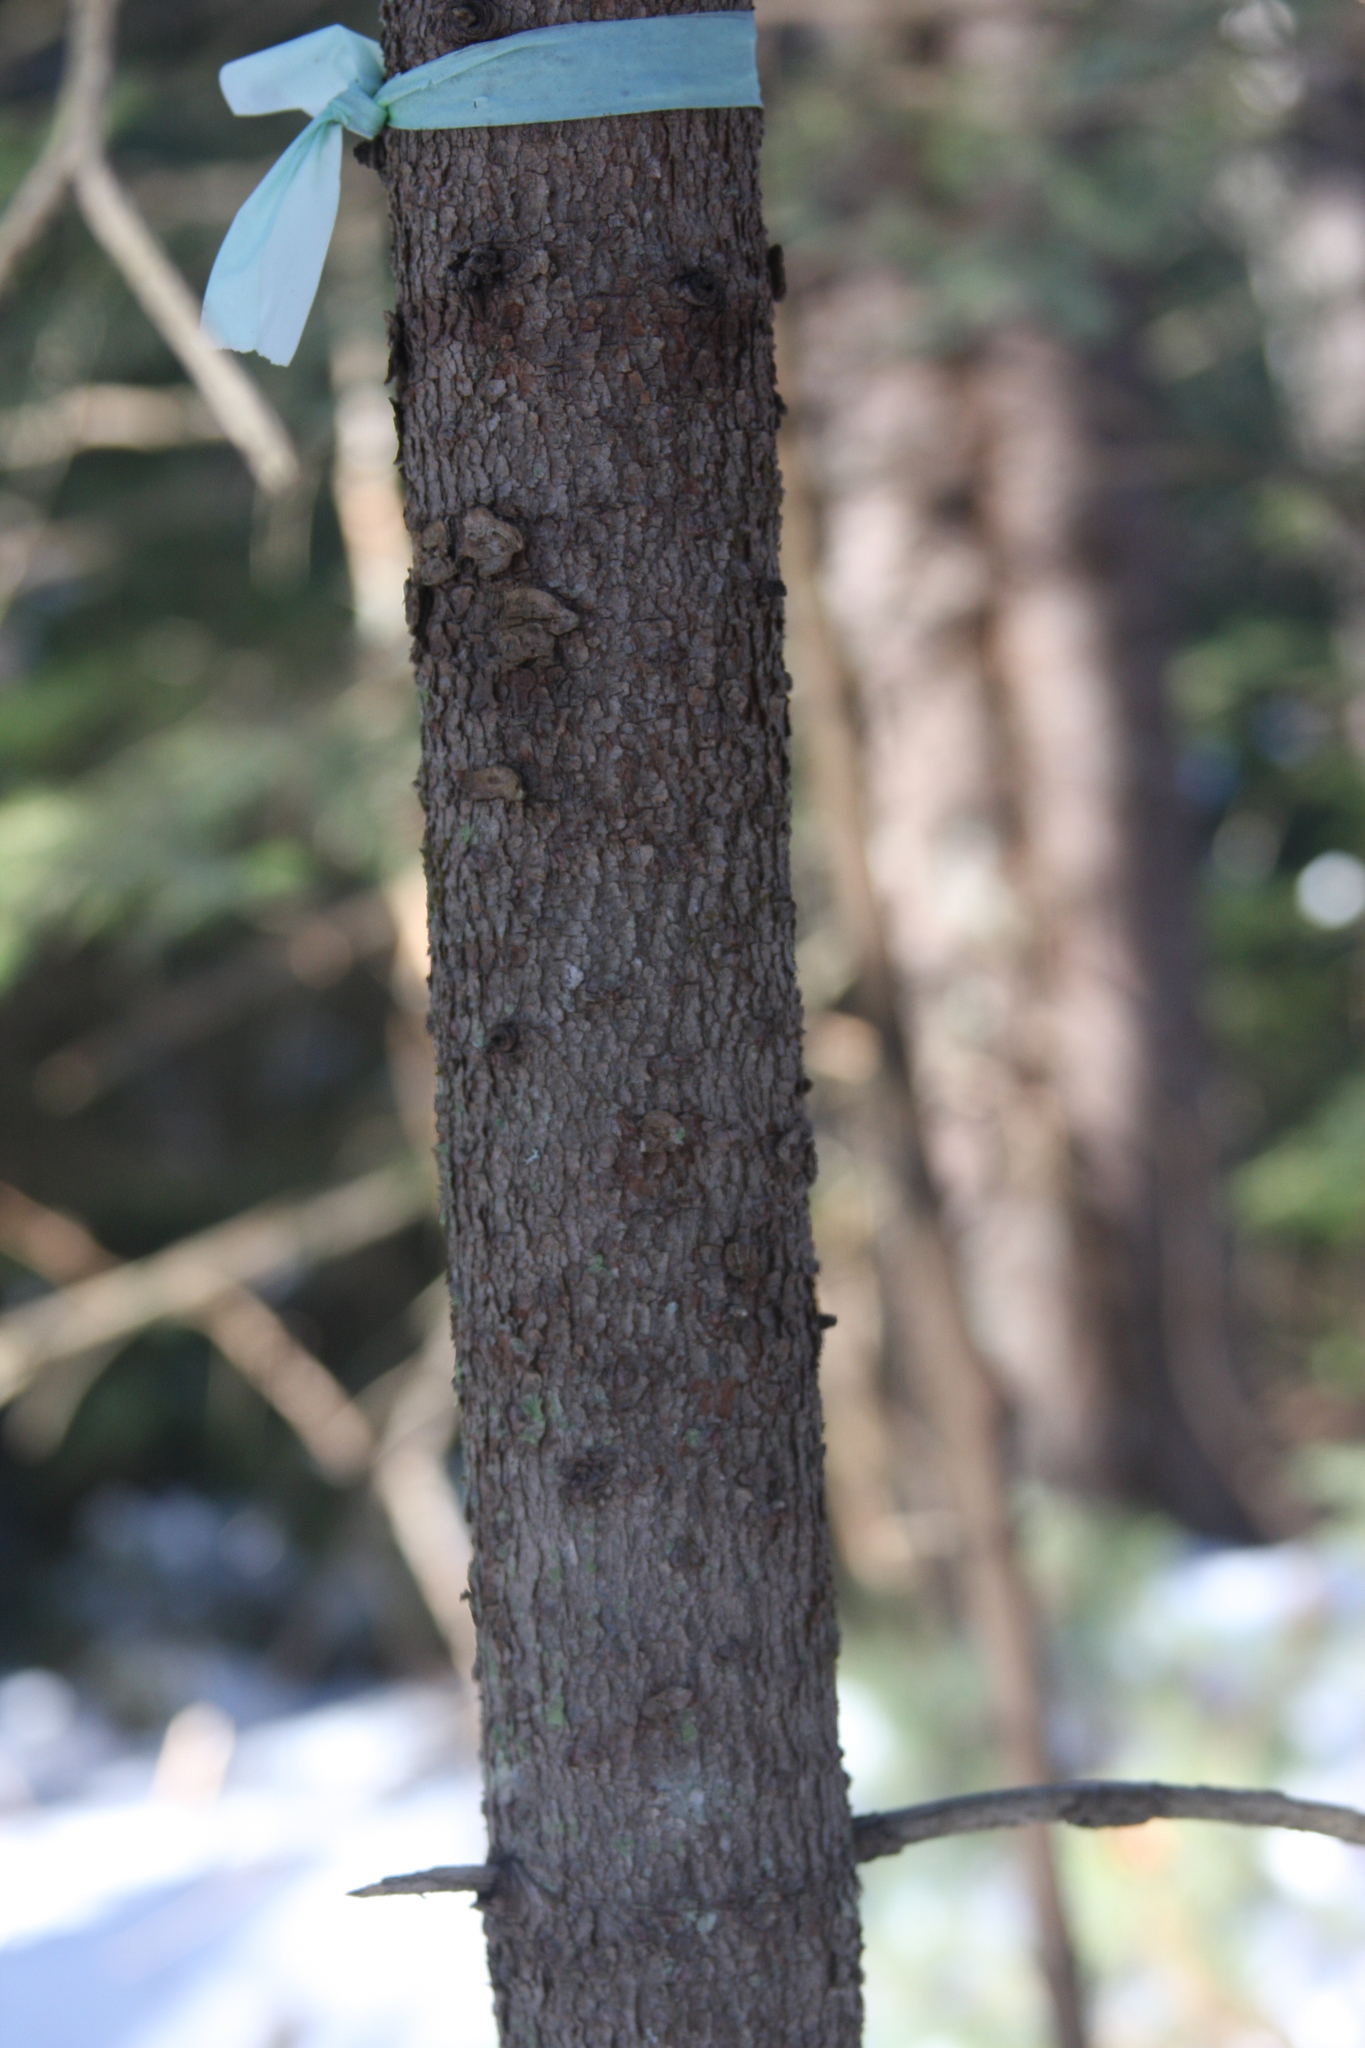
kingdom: Plantae
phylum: Tracheophyta
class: Pinopsida
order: Pinales
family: Pinaceae
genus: Abies
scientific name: Abies balsamea
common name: Balsam fir
